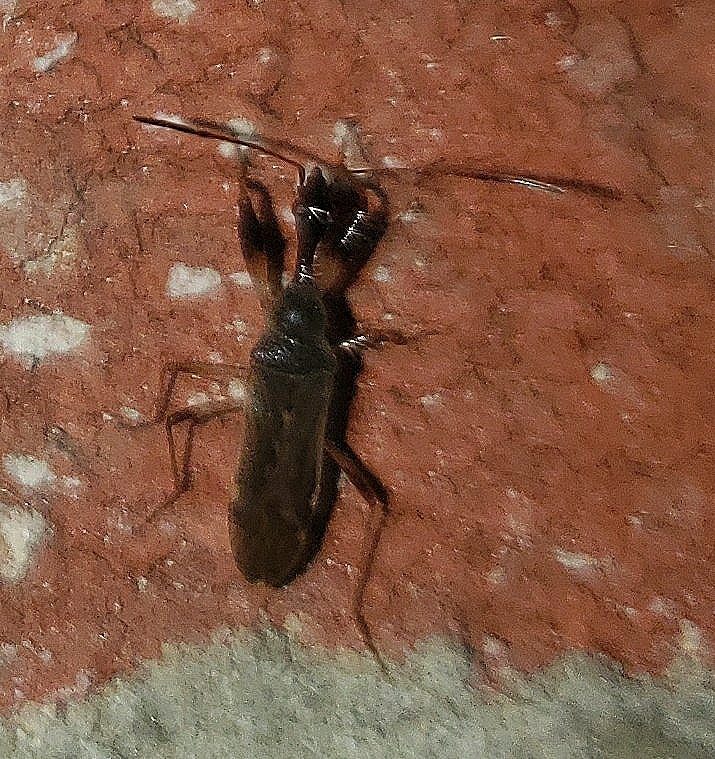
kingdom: Animalia
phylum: Arthropoda
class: Insecta
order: Hemiptera
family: Rhyparochromidae
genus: Myodocha
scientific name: Myodocha serripes
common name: Long-necked seed bug
